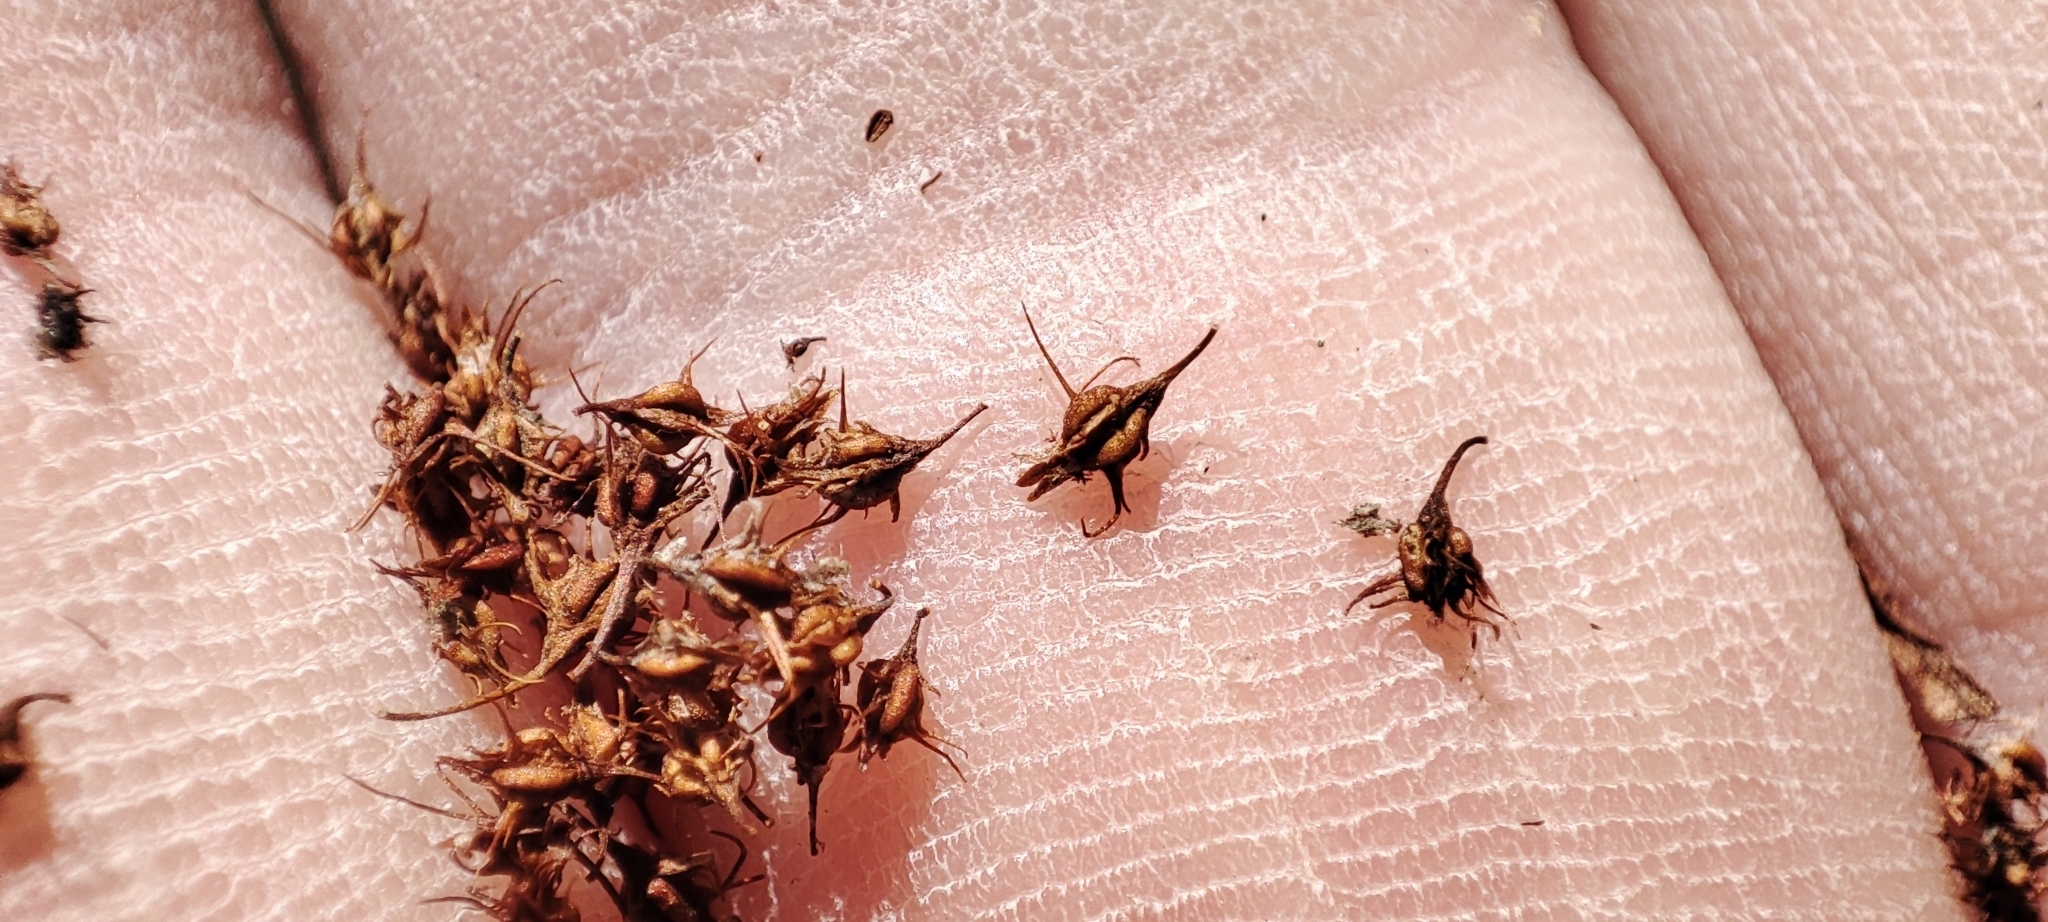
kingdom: Plantae
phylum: Tracheophyta
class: Magnoliopsida
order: Caryophyllales
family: Polygonaceae
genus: Rumex
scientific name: Rumex maritimus
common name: Golden dock
